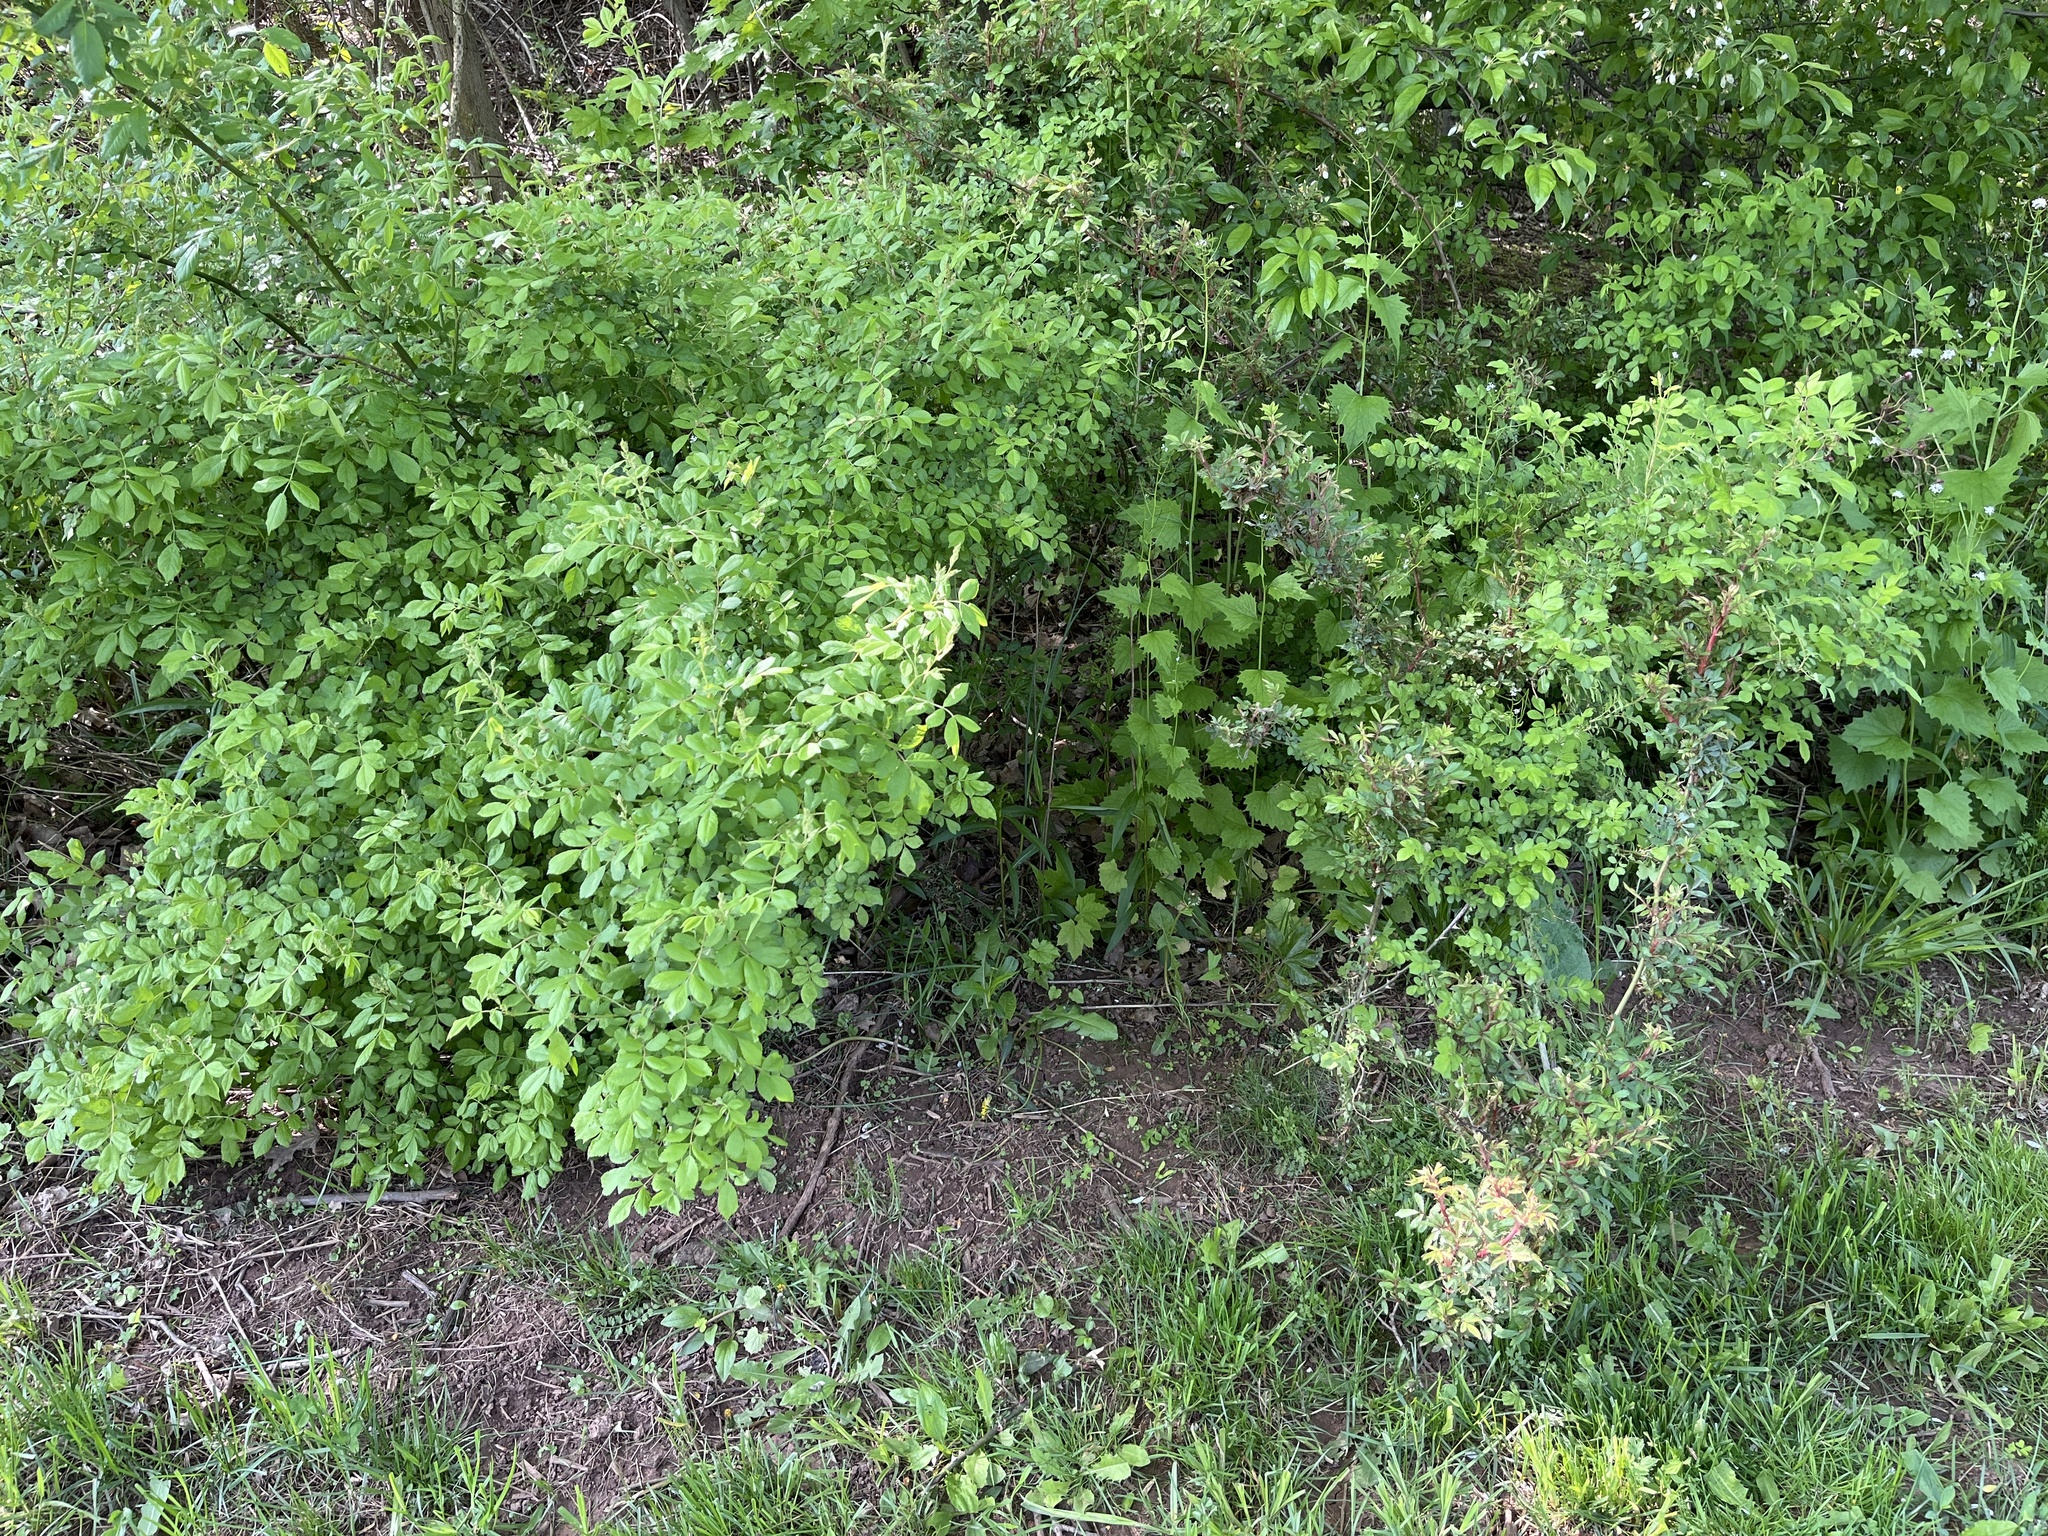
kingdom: Plantae
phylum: Tracheophyta
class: Magnoliopsida
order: Rosales
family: Rosaceae
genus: Rosa
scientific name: Rosa multiflora
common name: Multiflora rose
